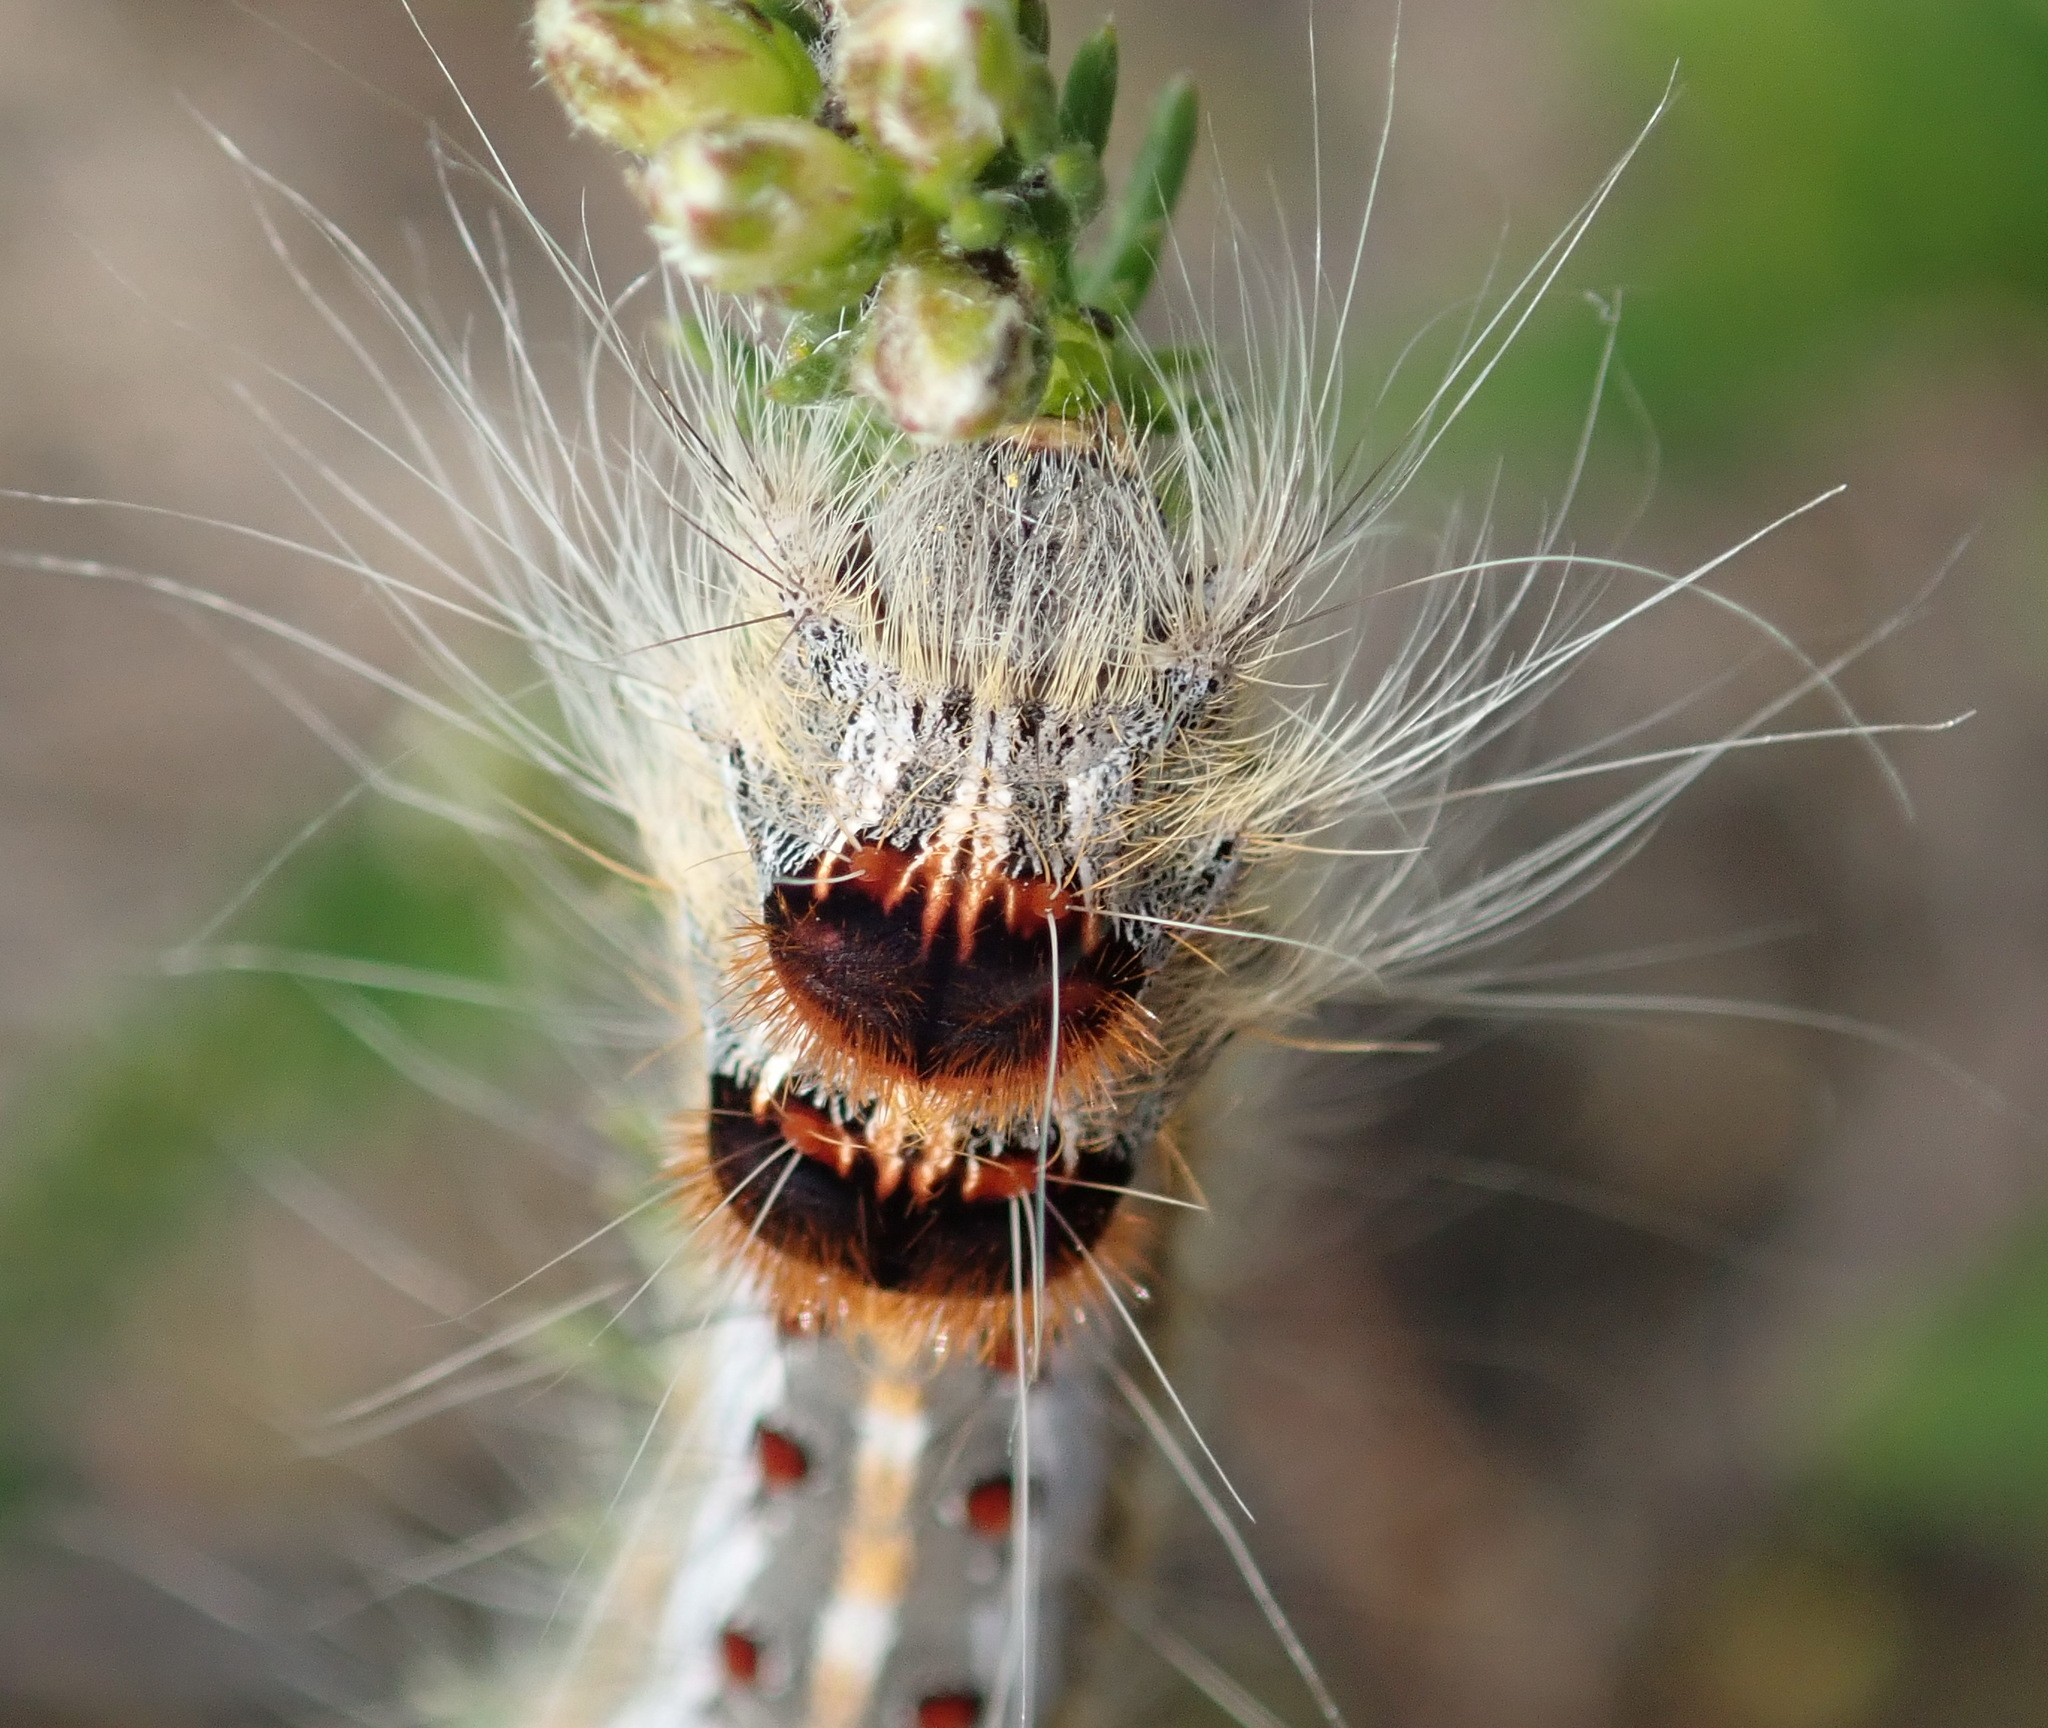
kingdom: Animalia
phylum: Arthropoda
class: Insecta
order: Lepidoptera
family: Lasiocampidae
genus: Streblote
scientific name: Streblote cristata
